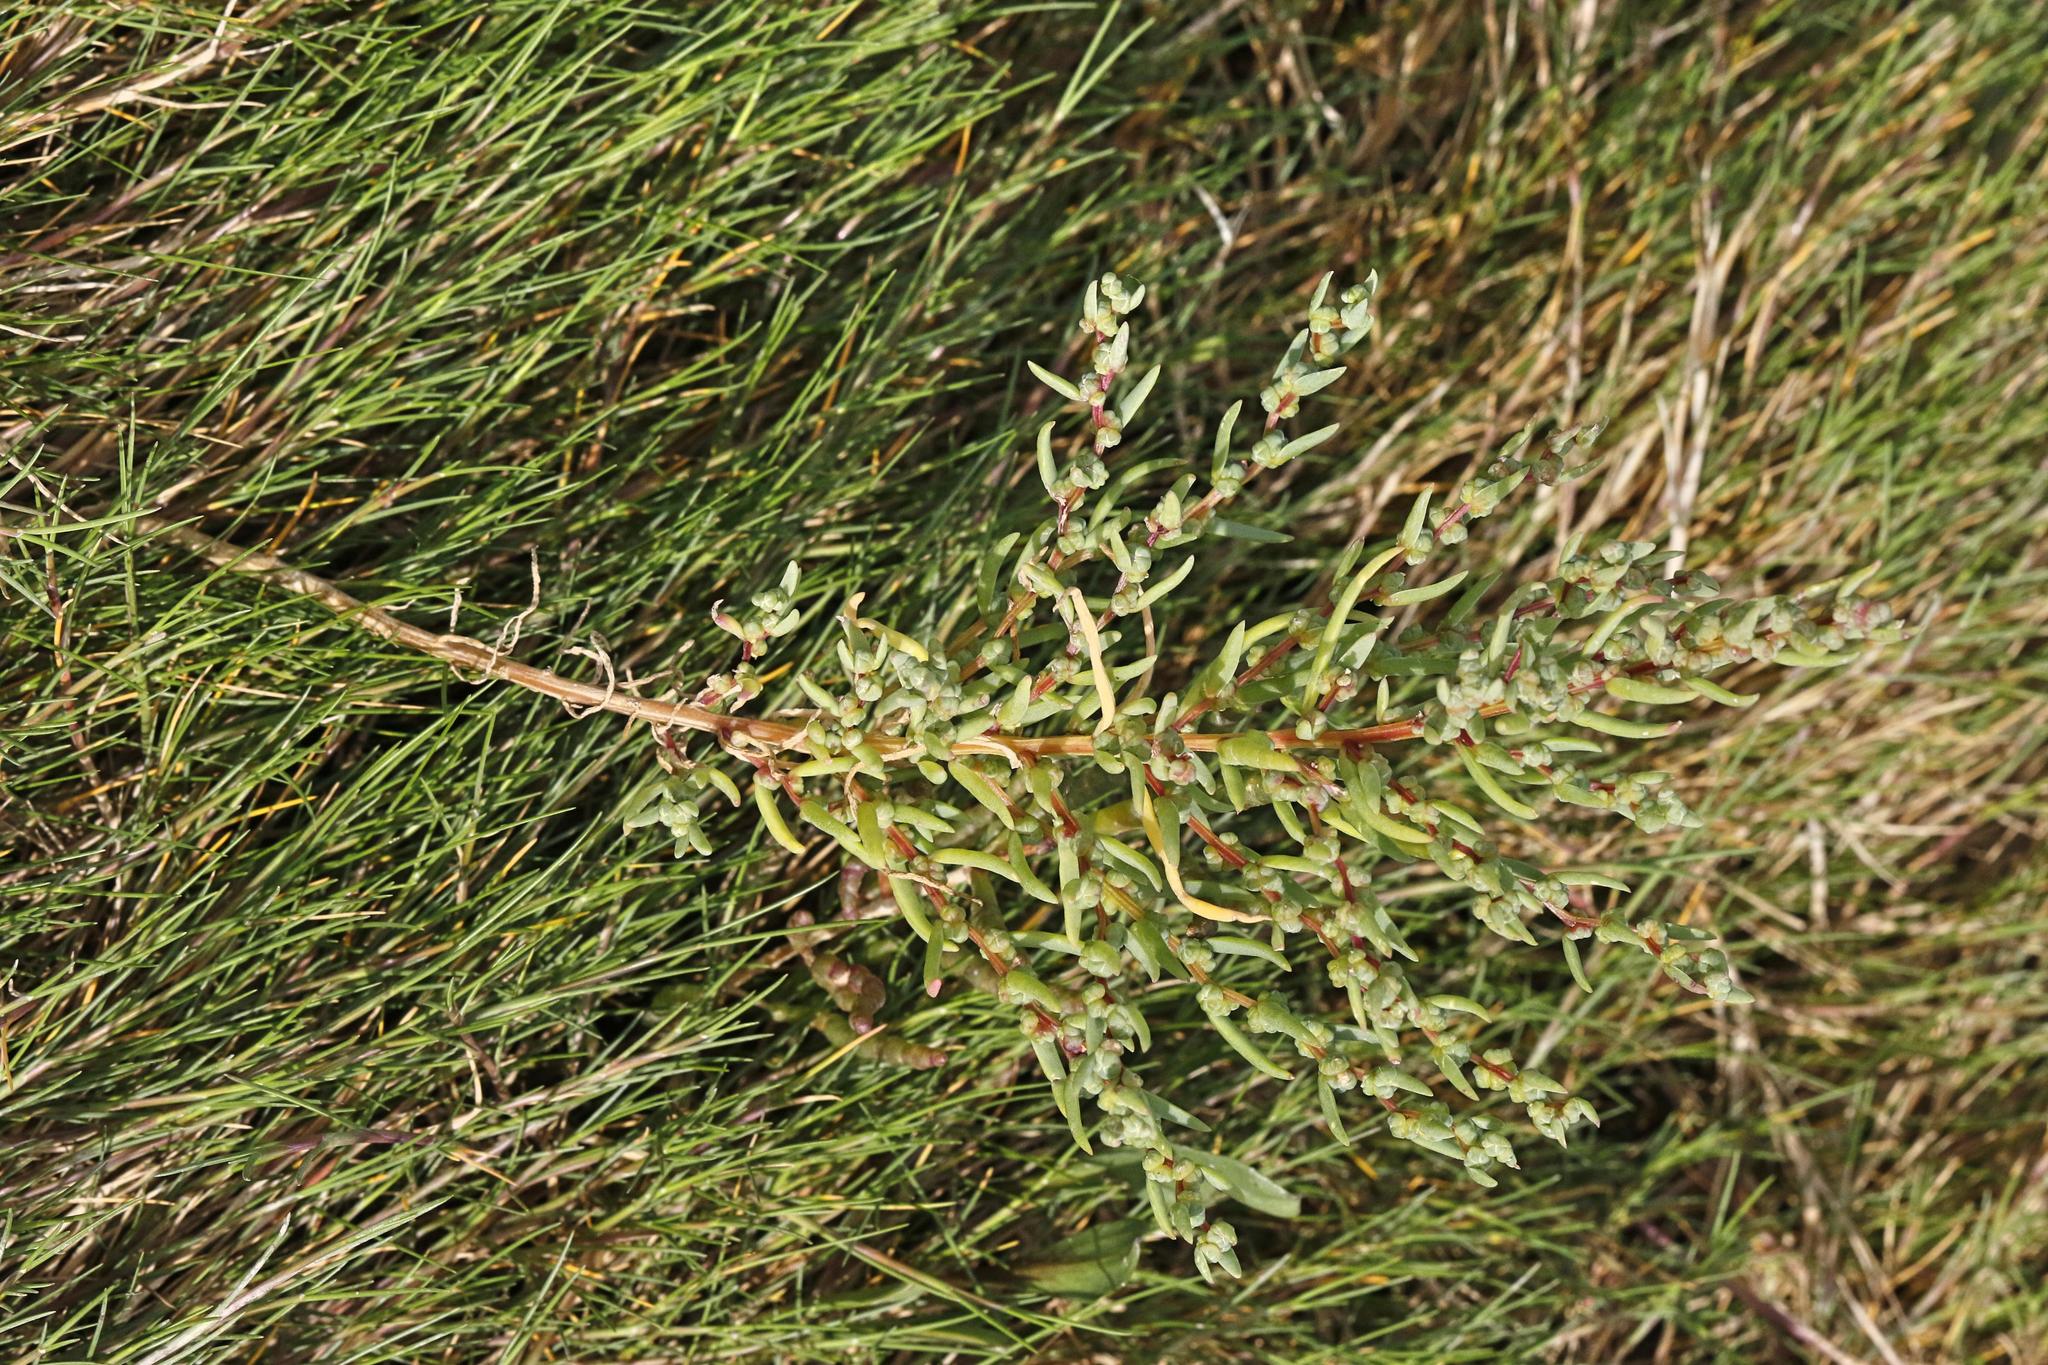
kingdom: Plantae
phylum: Tracheophyta
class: Magnoliopsida
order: Caryophyllales
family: Amaranthaceae
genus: Suaeda
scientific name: Suaeda maritima
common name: Annual sea-blite
